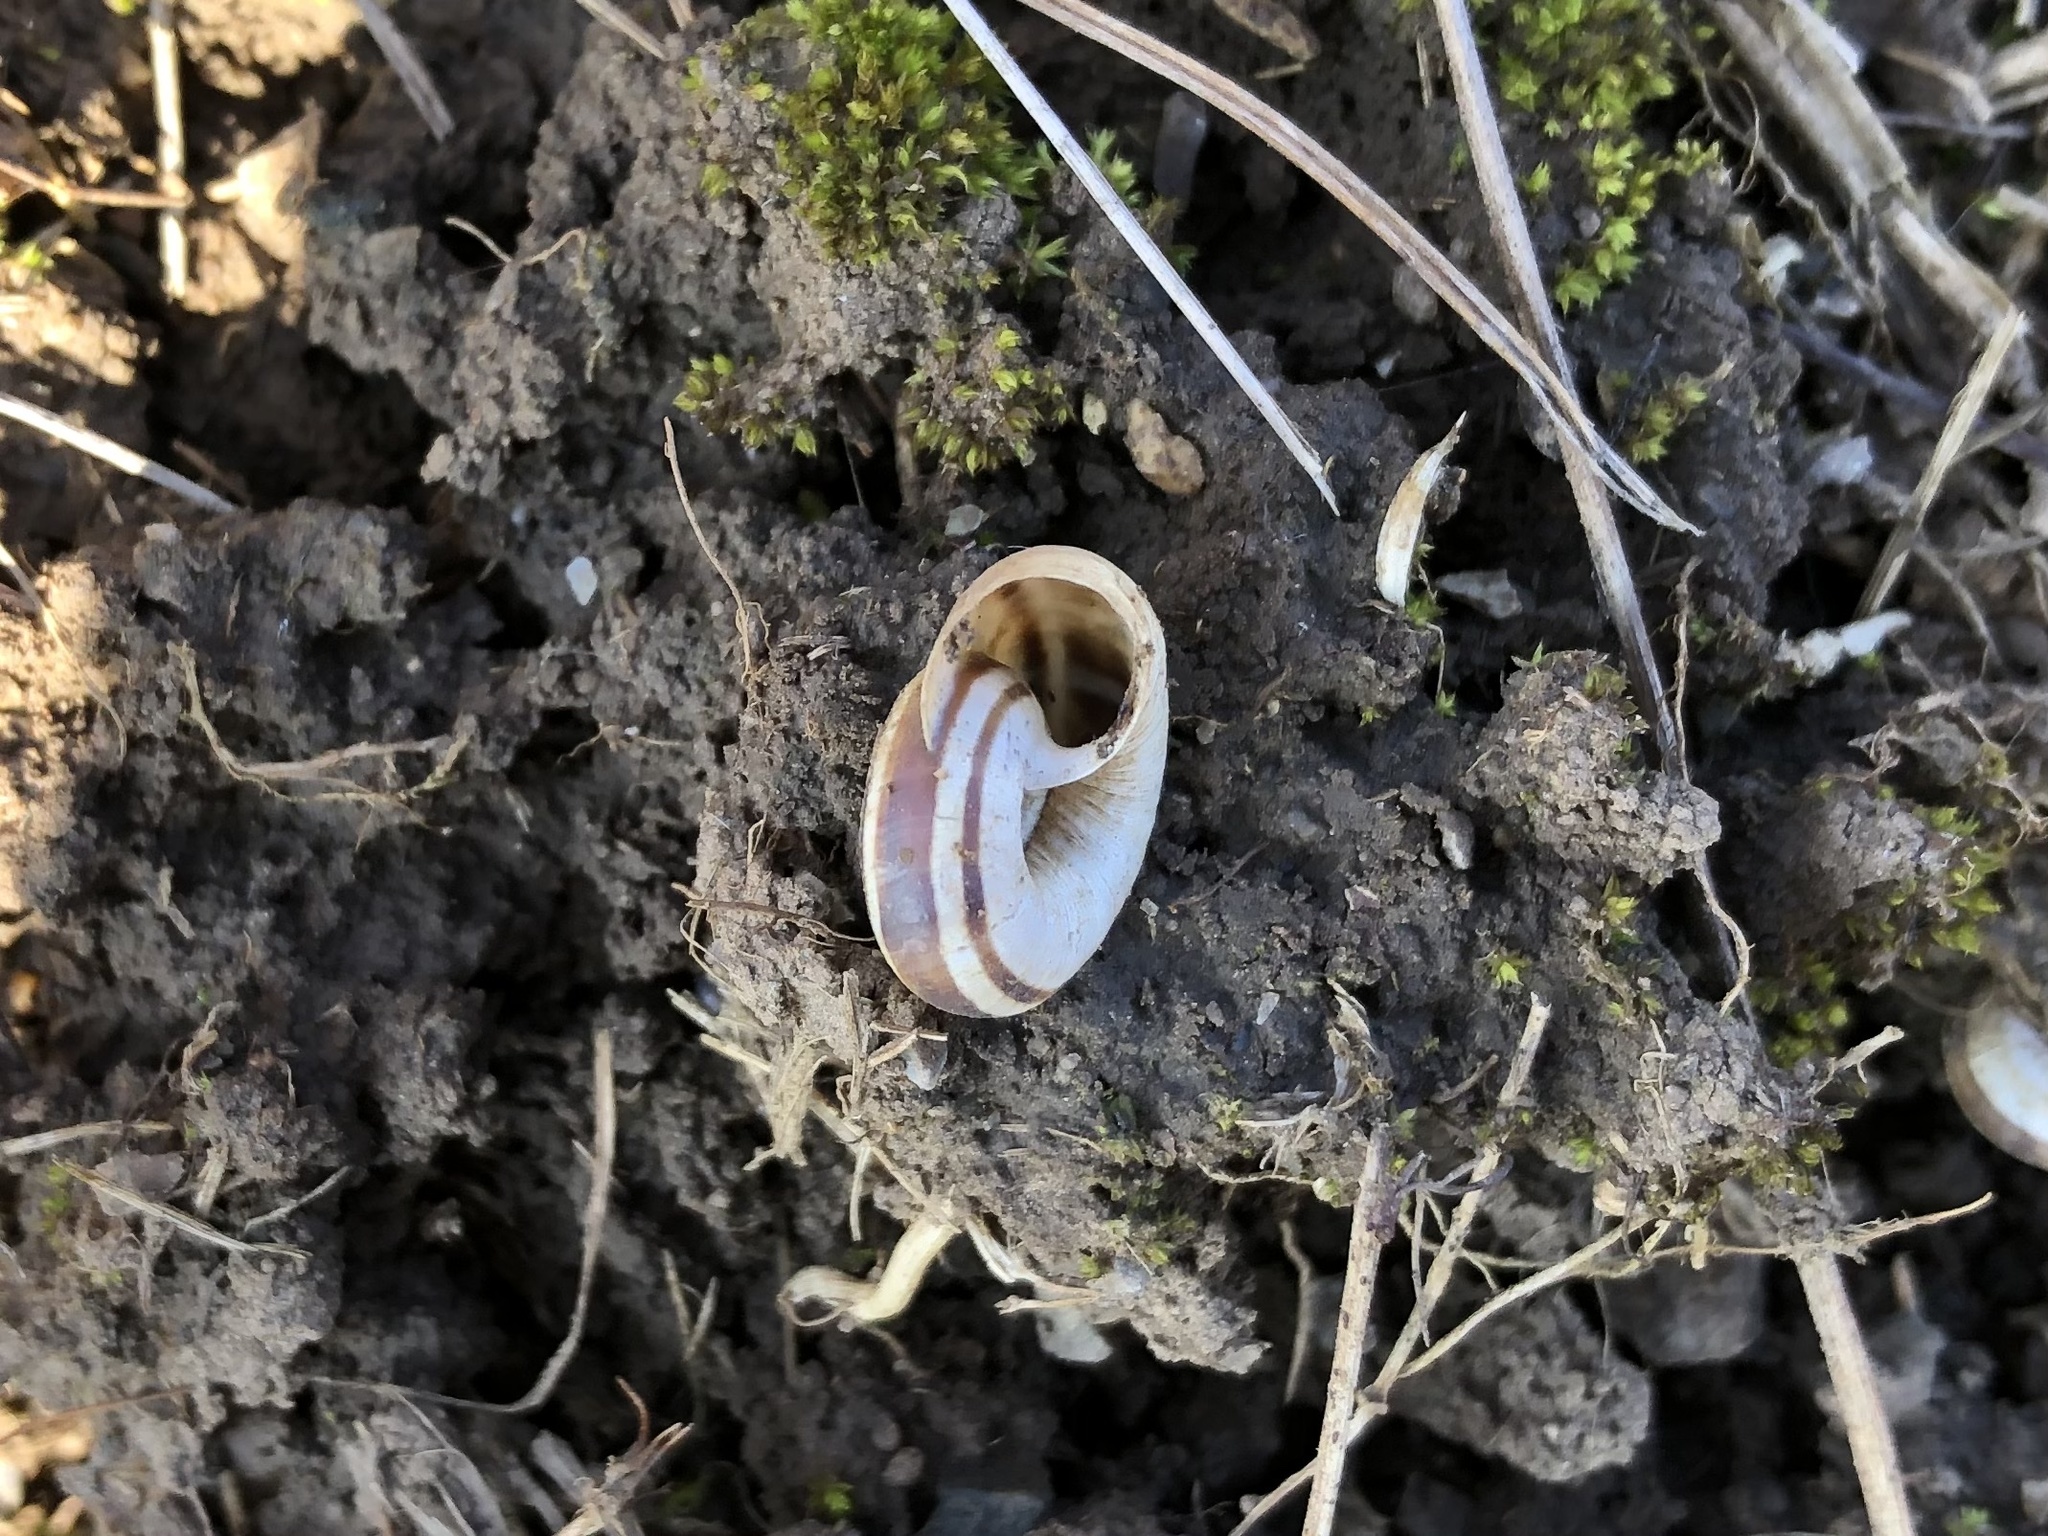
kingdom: Animalia
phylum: Mollusca
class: Gastropoda
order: Stylommatophora
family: Geomitridae
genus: Xerolenta
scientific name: Xerolenta obvia
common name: White heath snail
